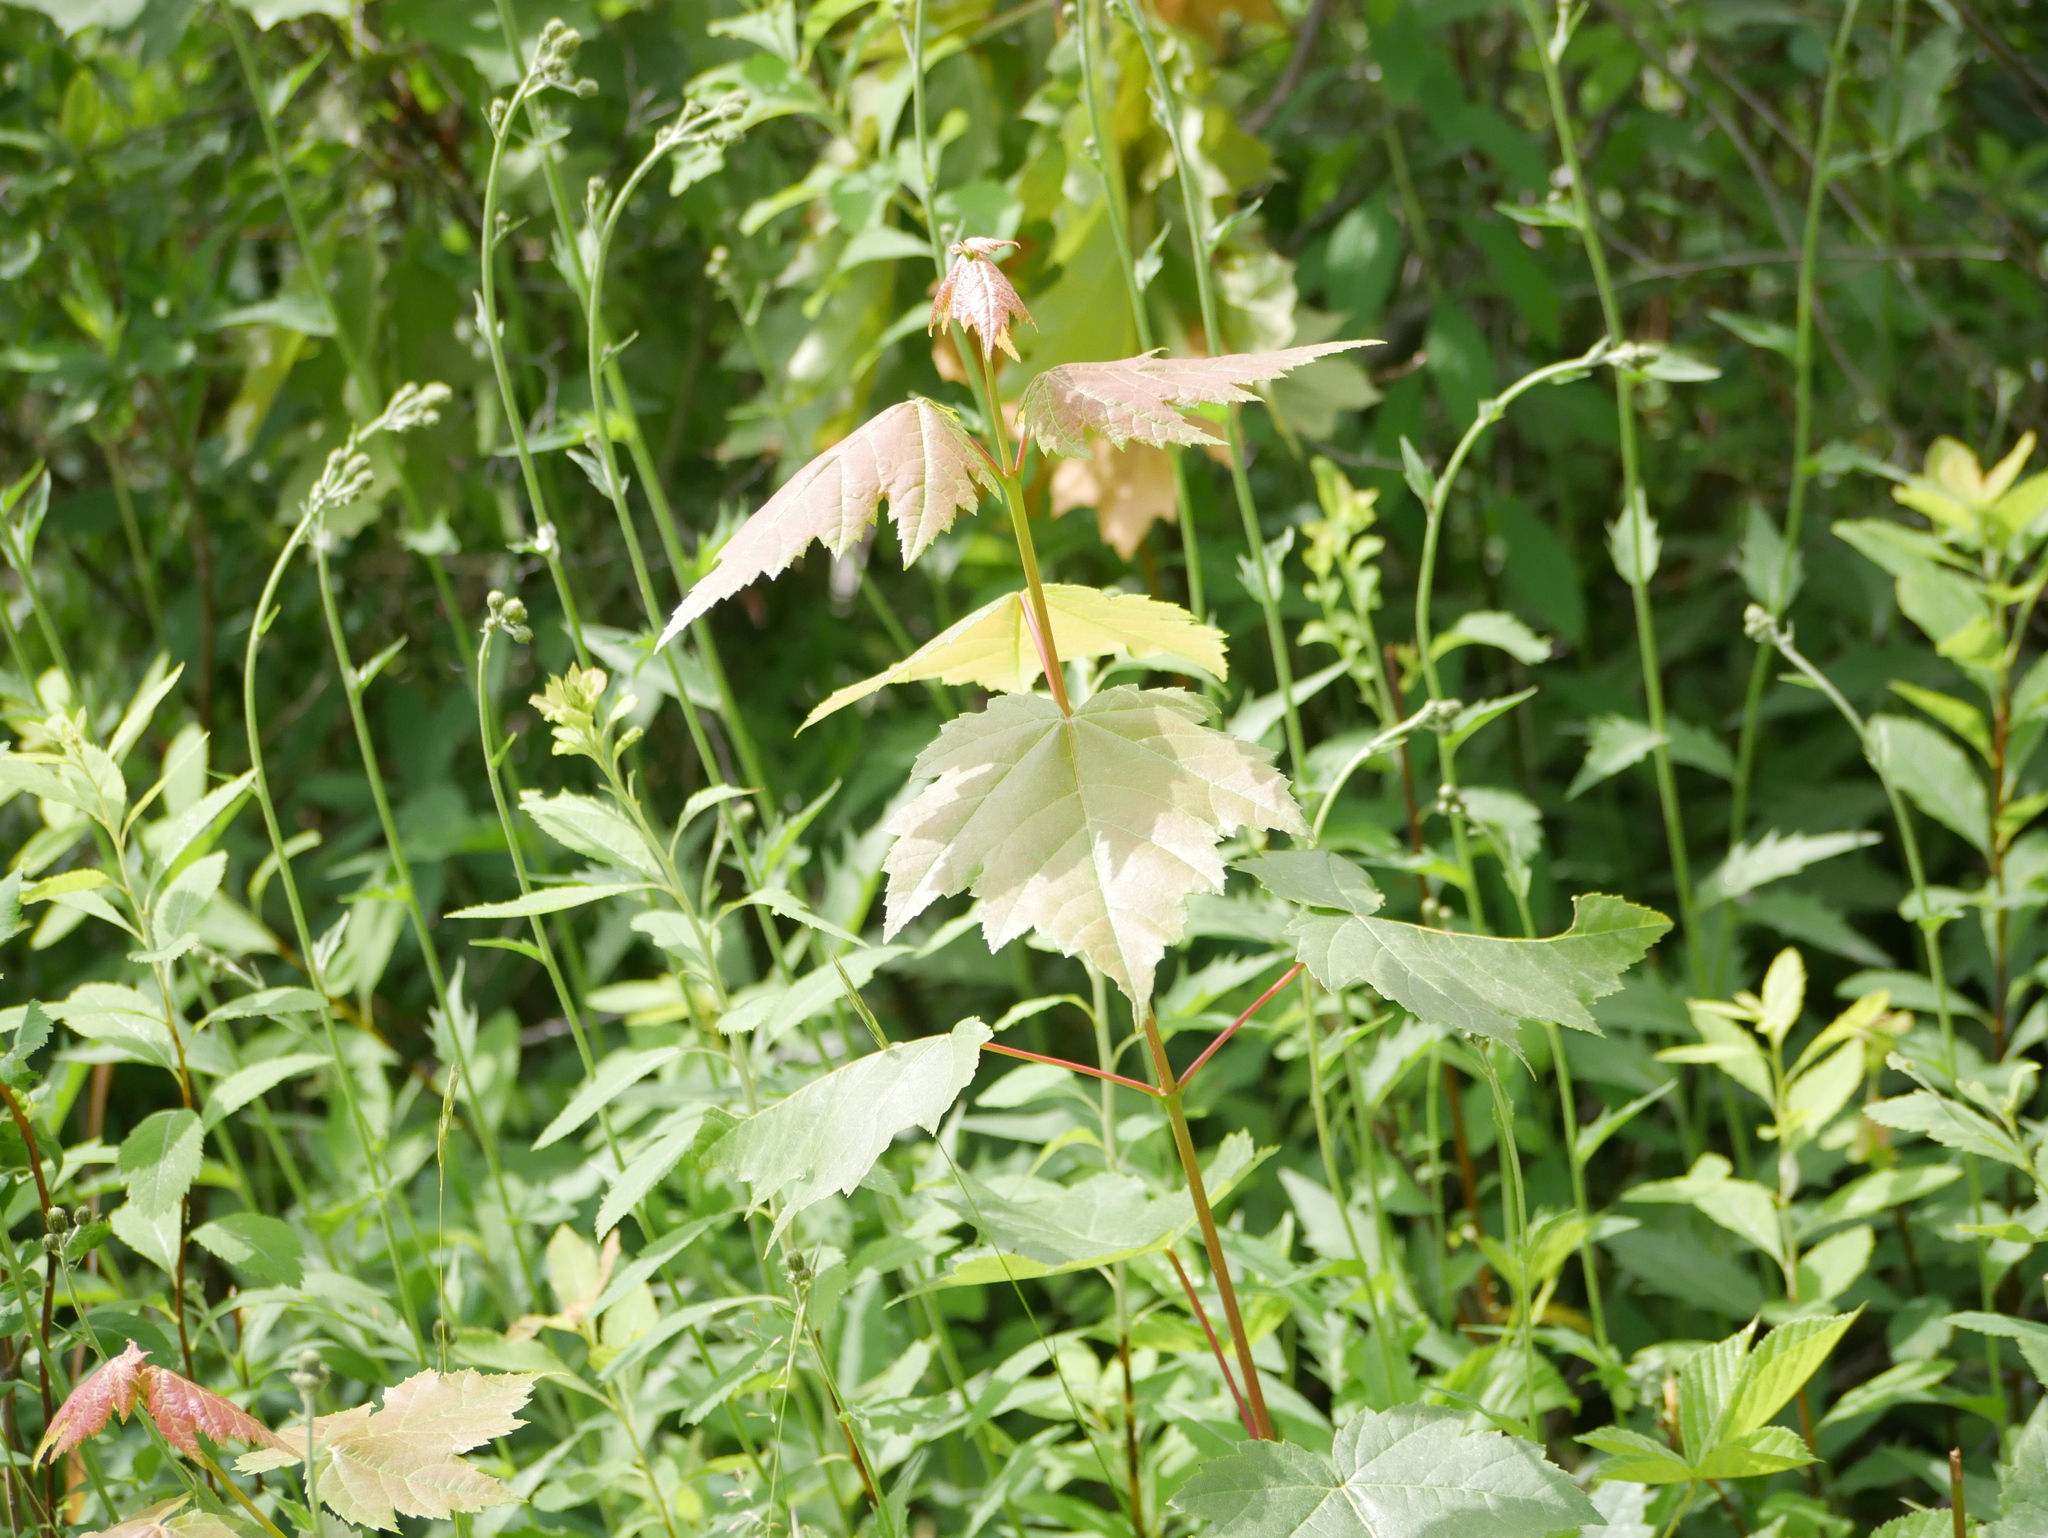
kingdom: Plantae
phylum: Tracheophyta
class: Magnoliopsida
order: Sapindales
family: Sapindaceae
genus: Acer
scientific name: Acer rubrum
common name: Red maple
